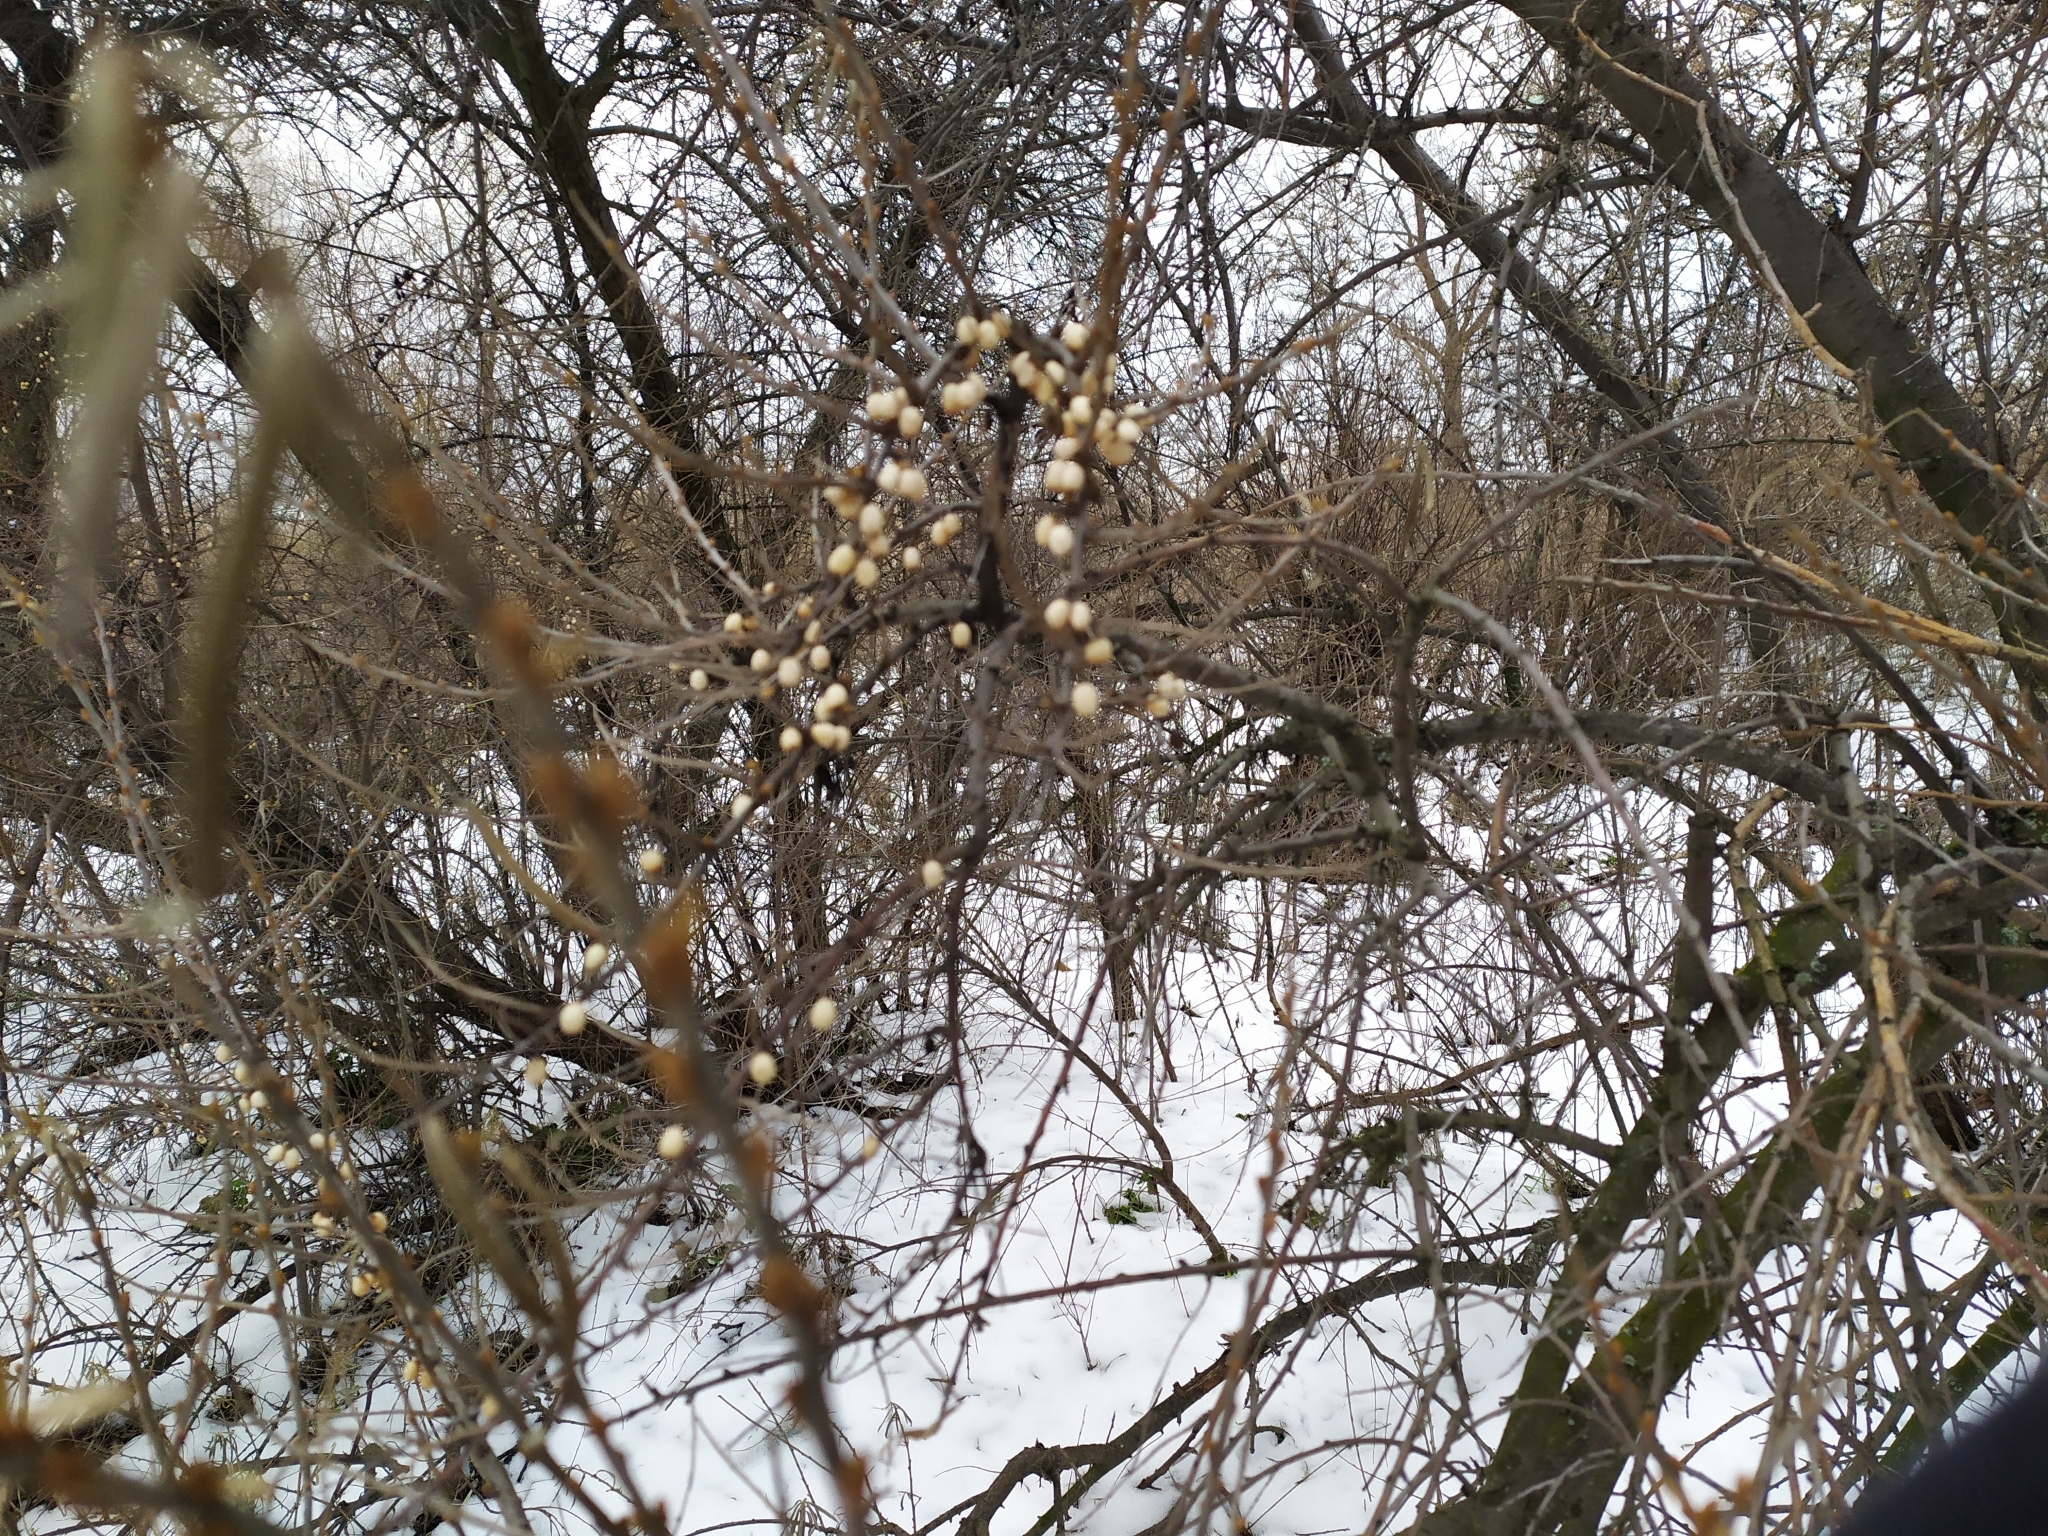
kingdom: Plantae
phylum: Tracheophyta
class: Magnoliopsida
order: Rosales
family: Elaeagnaceae
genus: Hippophae
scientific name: Hippophae rhamnoides
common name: Sea-buckthorn
